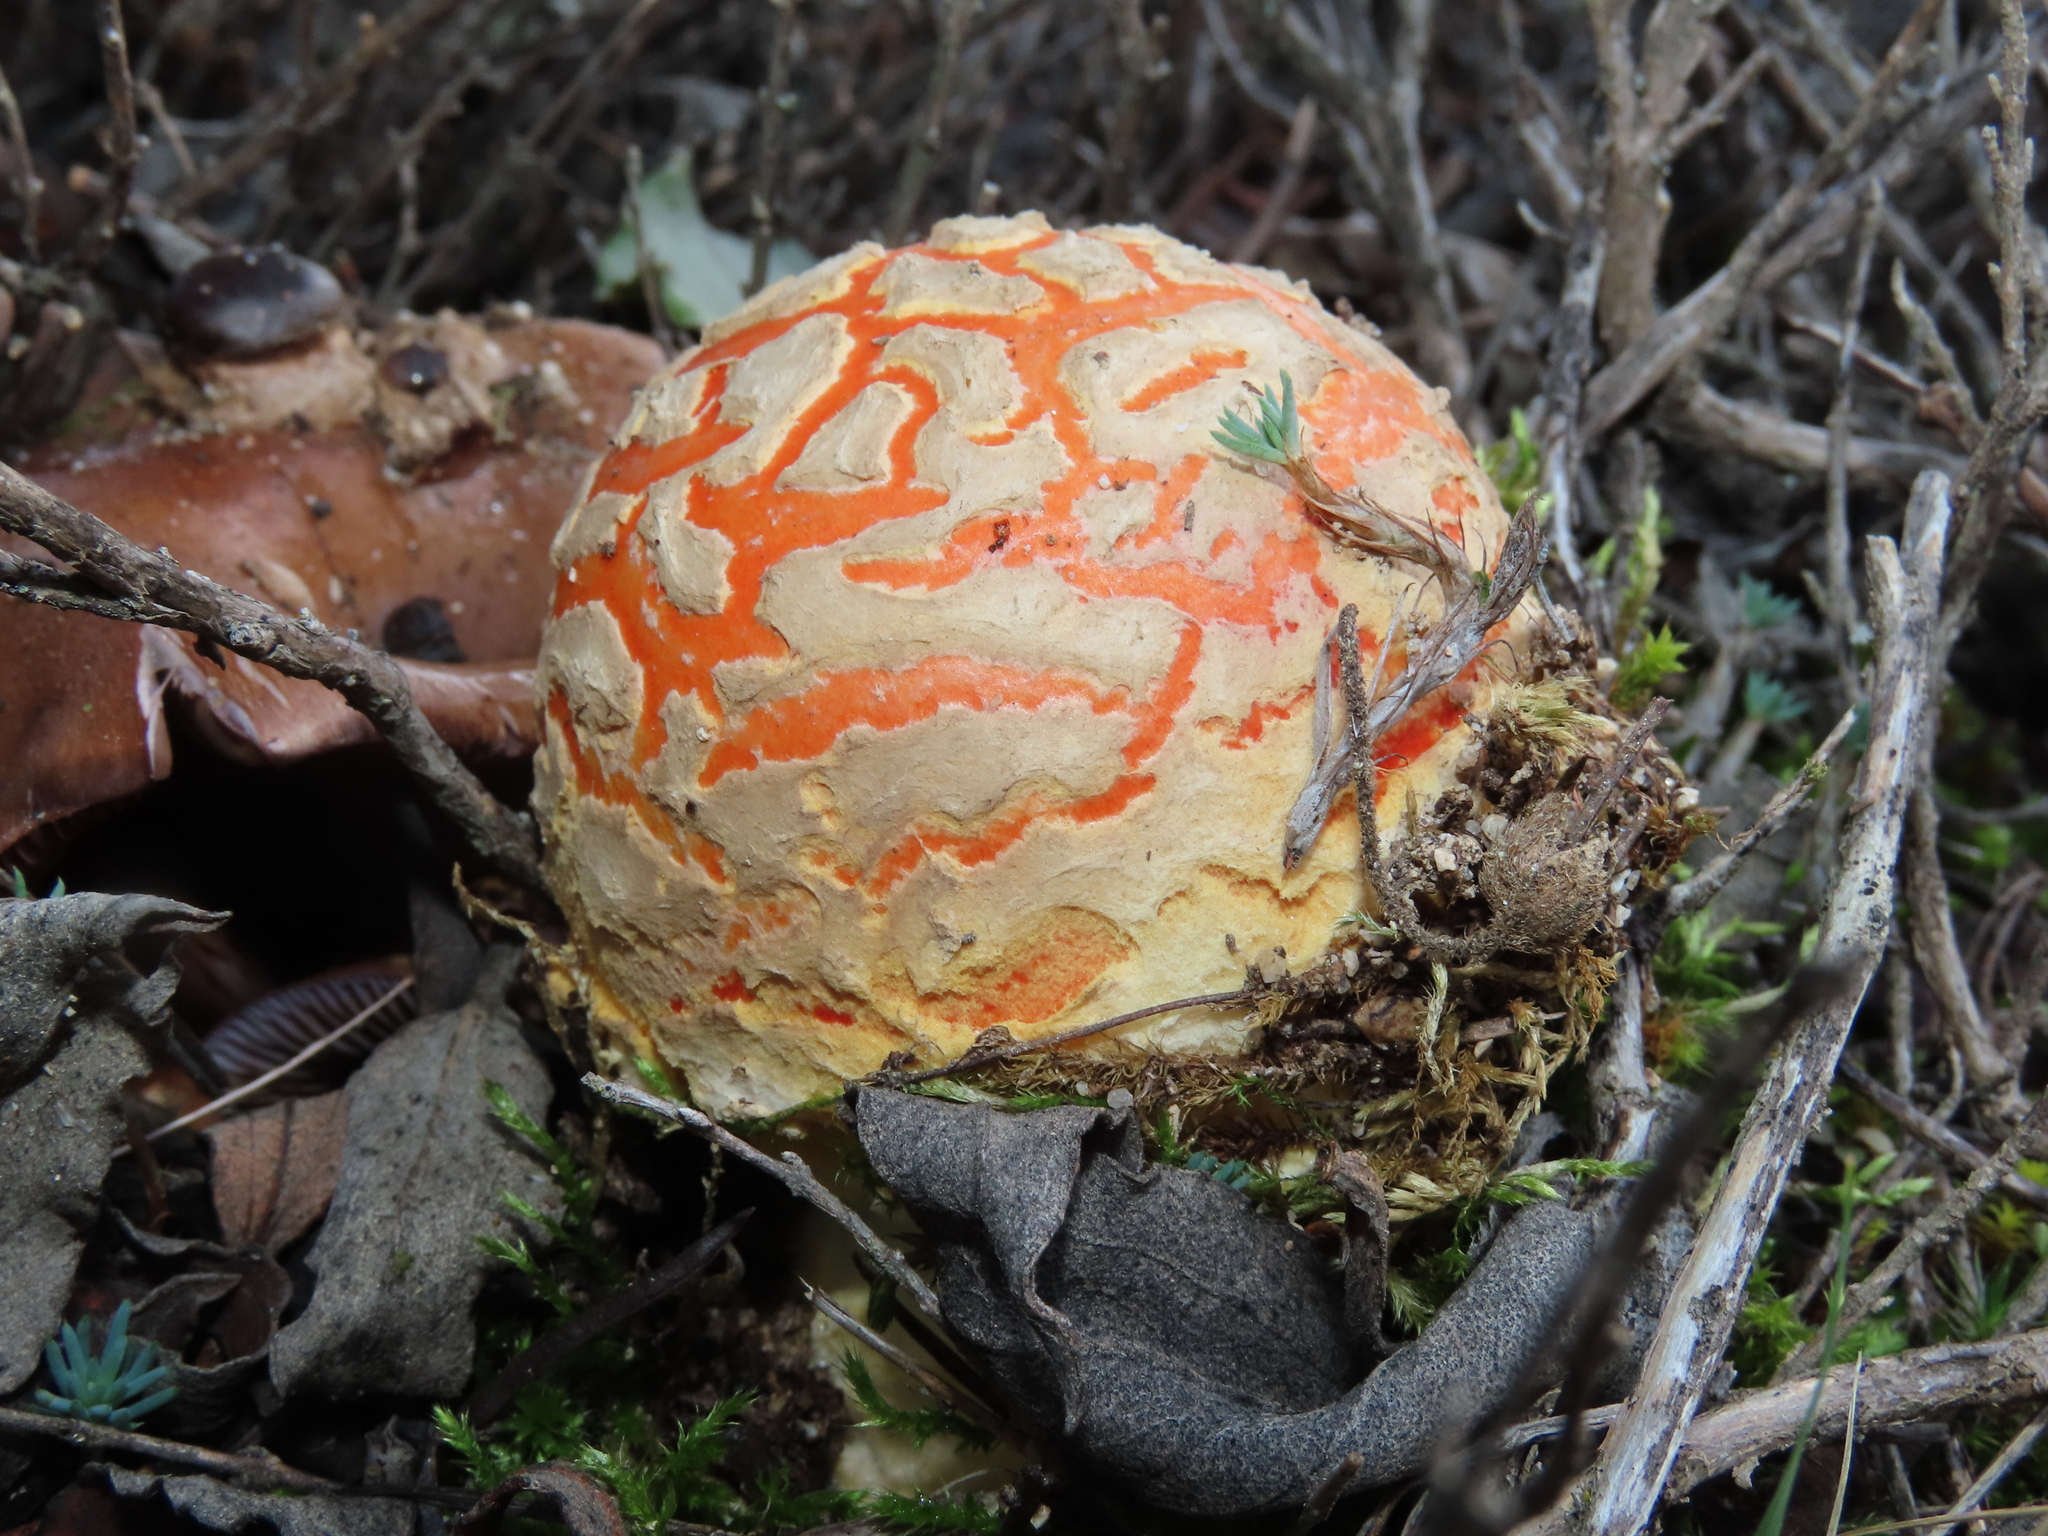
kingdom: Fungi
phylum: Basidiomycota
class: Agaricomycetes
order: Agaricales
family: Amanitaceae
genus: Amanita
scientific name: Amanita muscaria
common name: Fly agaric
